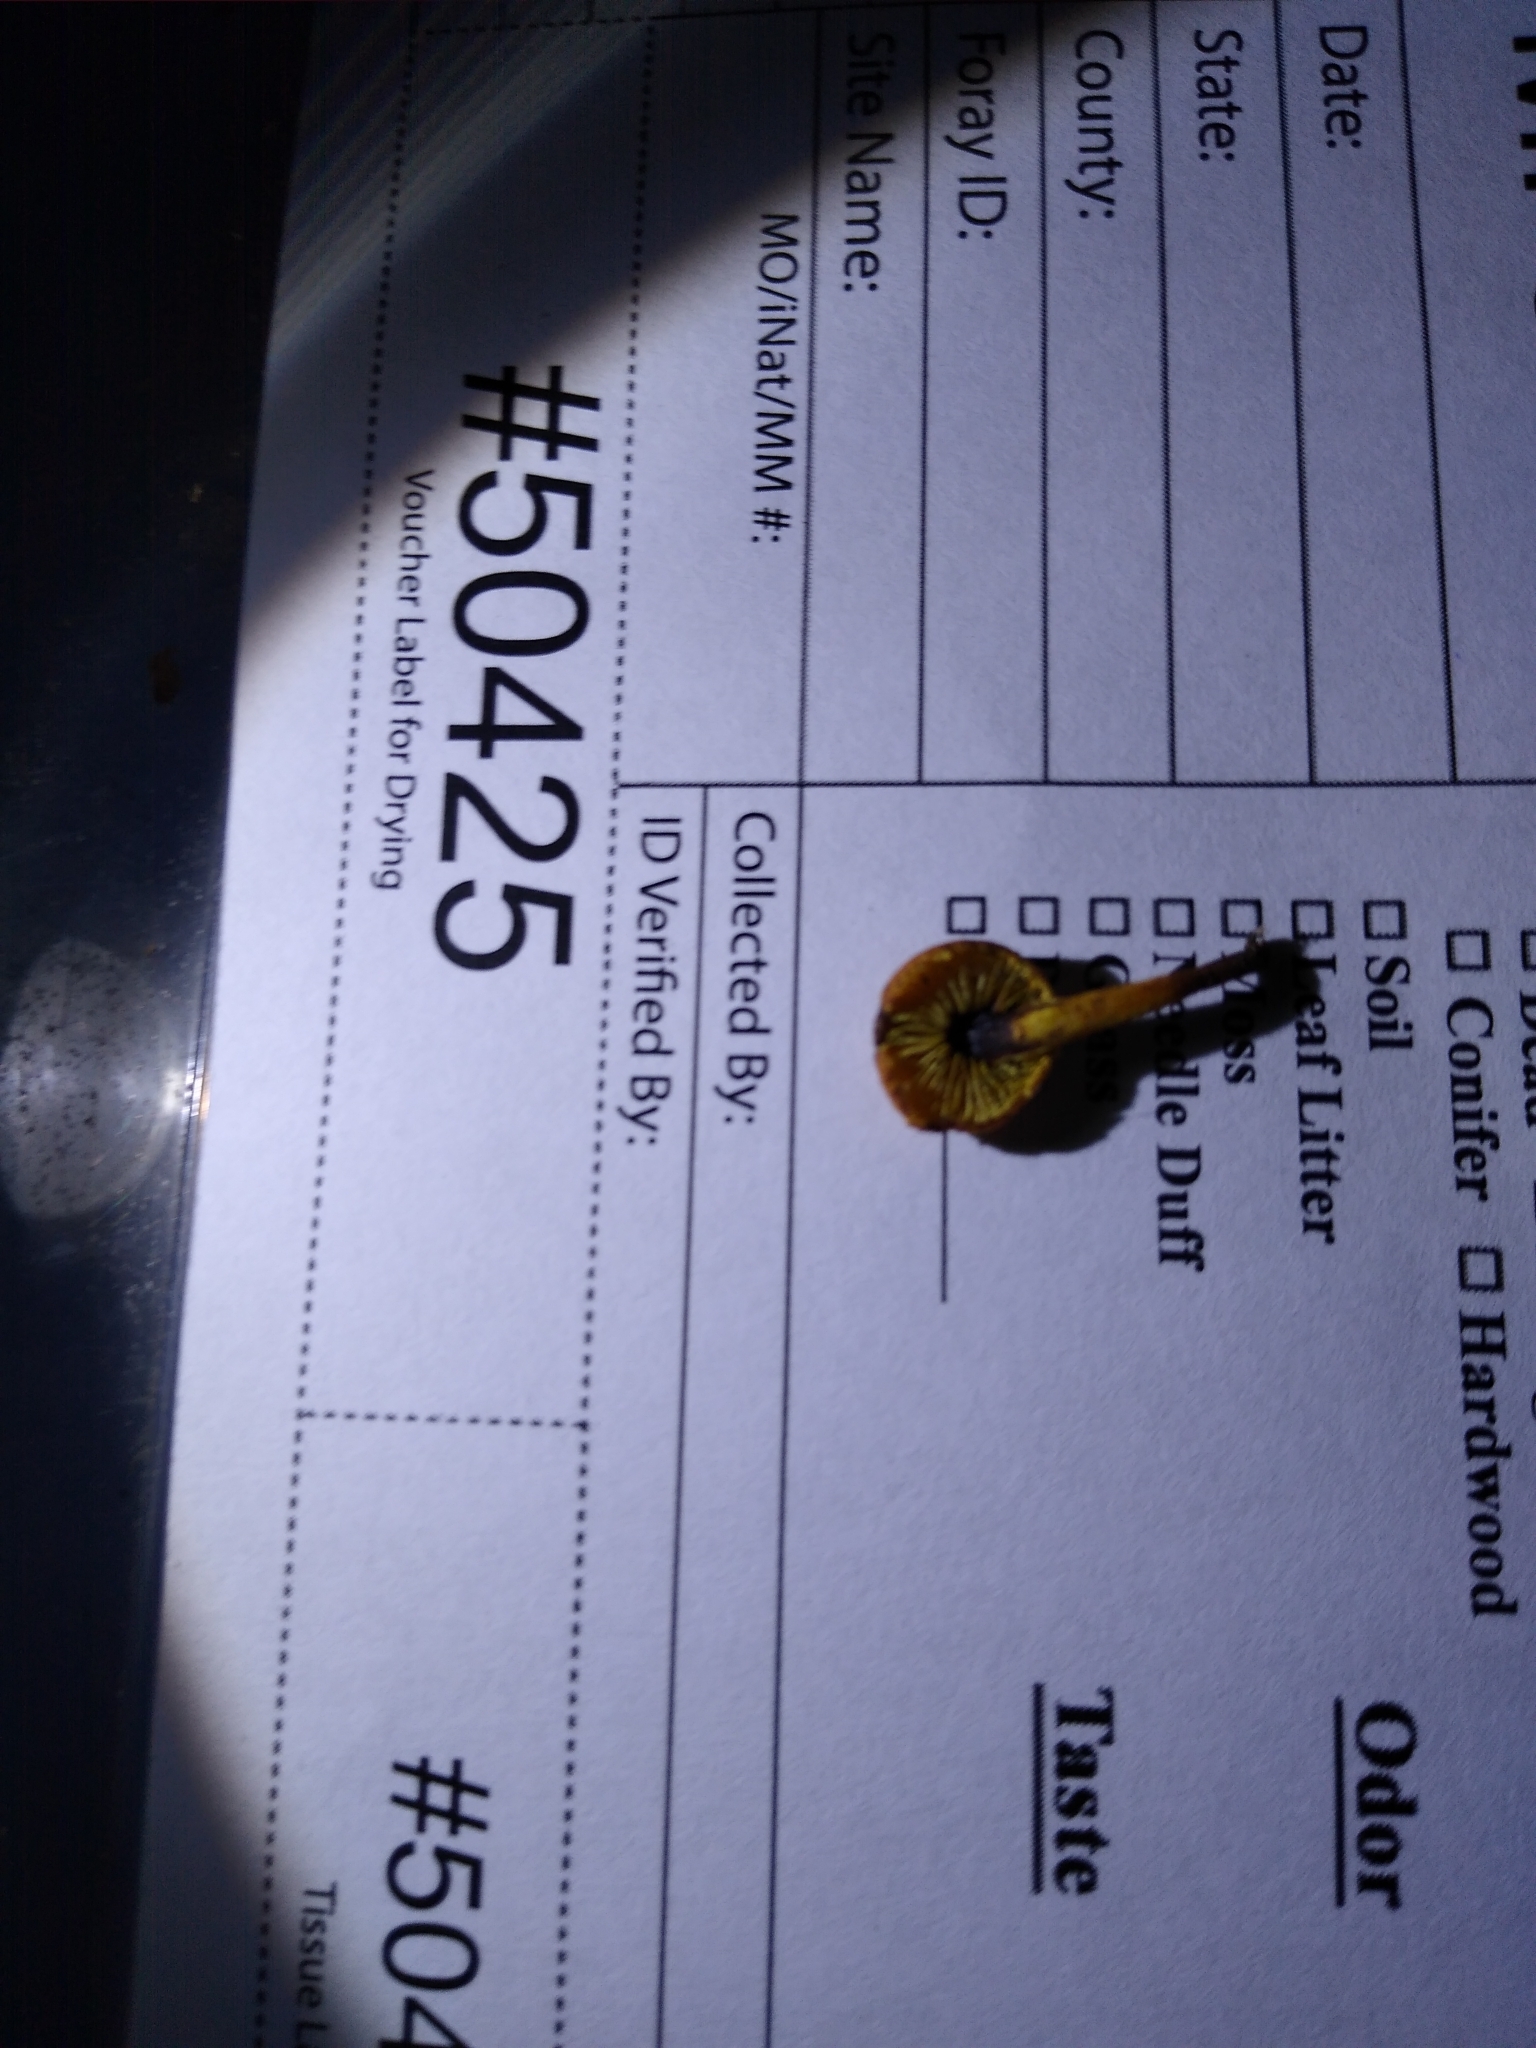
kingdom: Fungi
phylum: Basidiomycota
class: Agaricomycetes
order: Agaricales
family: Strophariaceae
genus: Pholiota
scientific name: Pholiota tuberculosa
